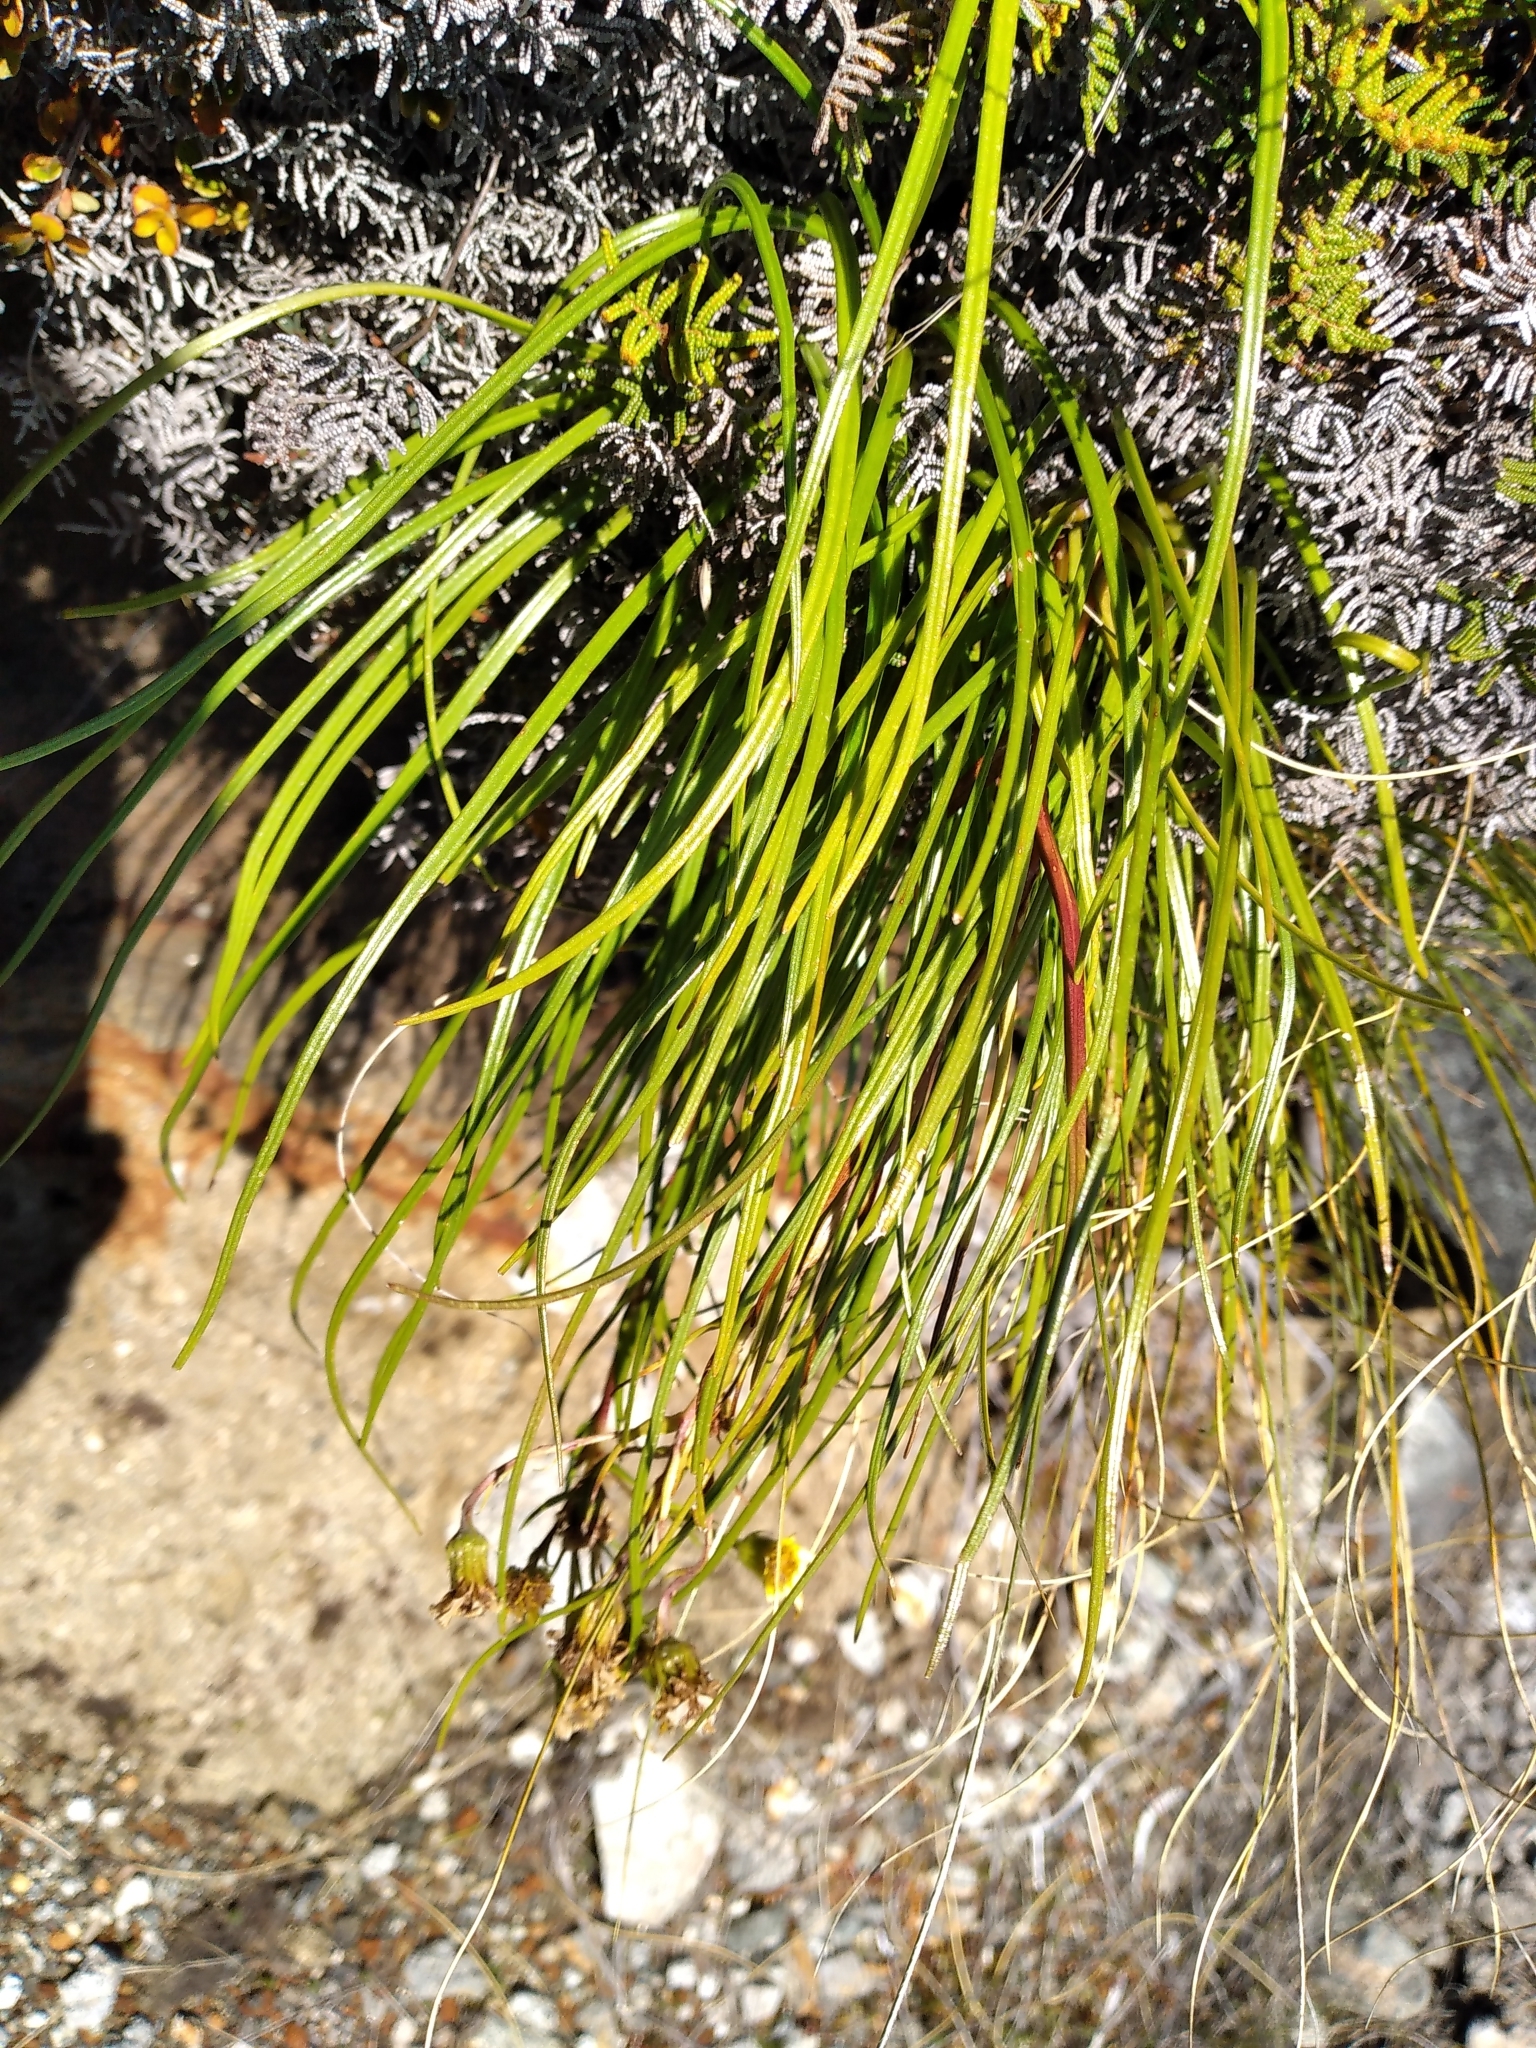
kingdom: Plantae
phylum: Tracheophyta
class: Magnoliopsida
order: Asterales
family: Asteraceae
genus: Dolichoglottis
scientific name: Dolichoglottis lyallii
